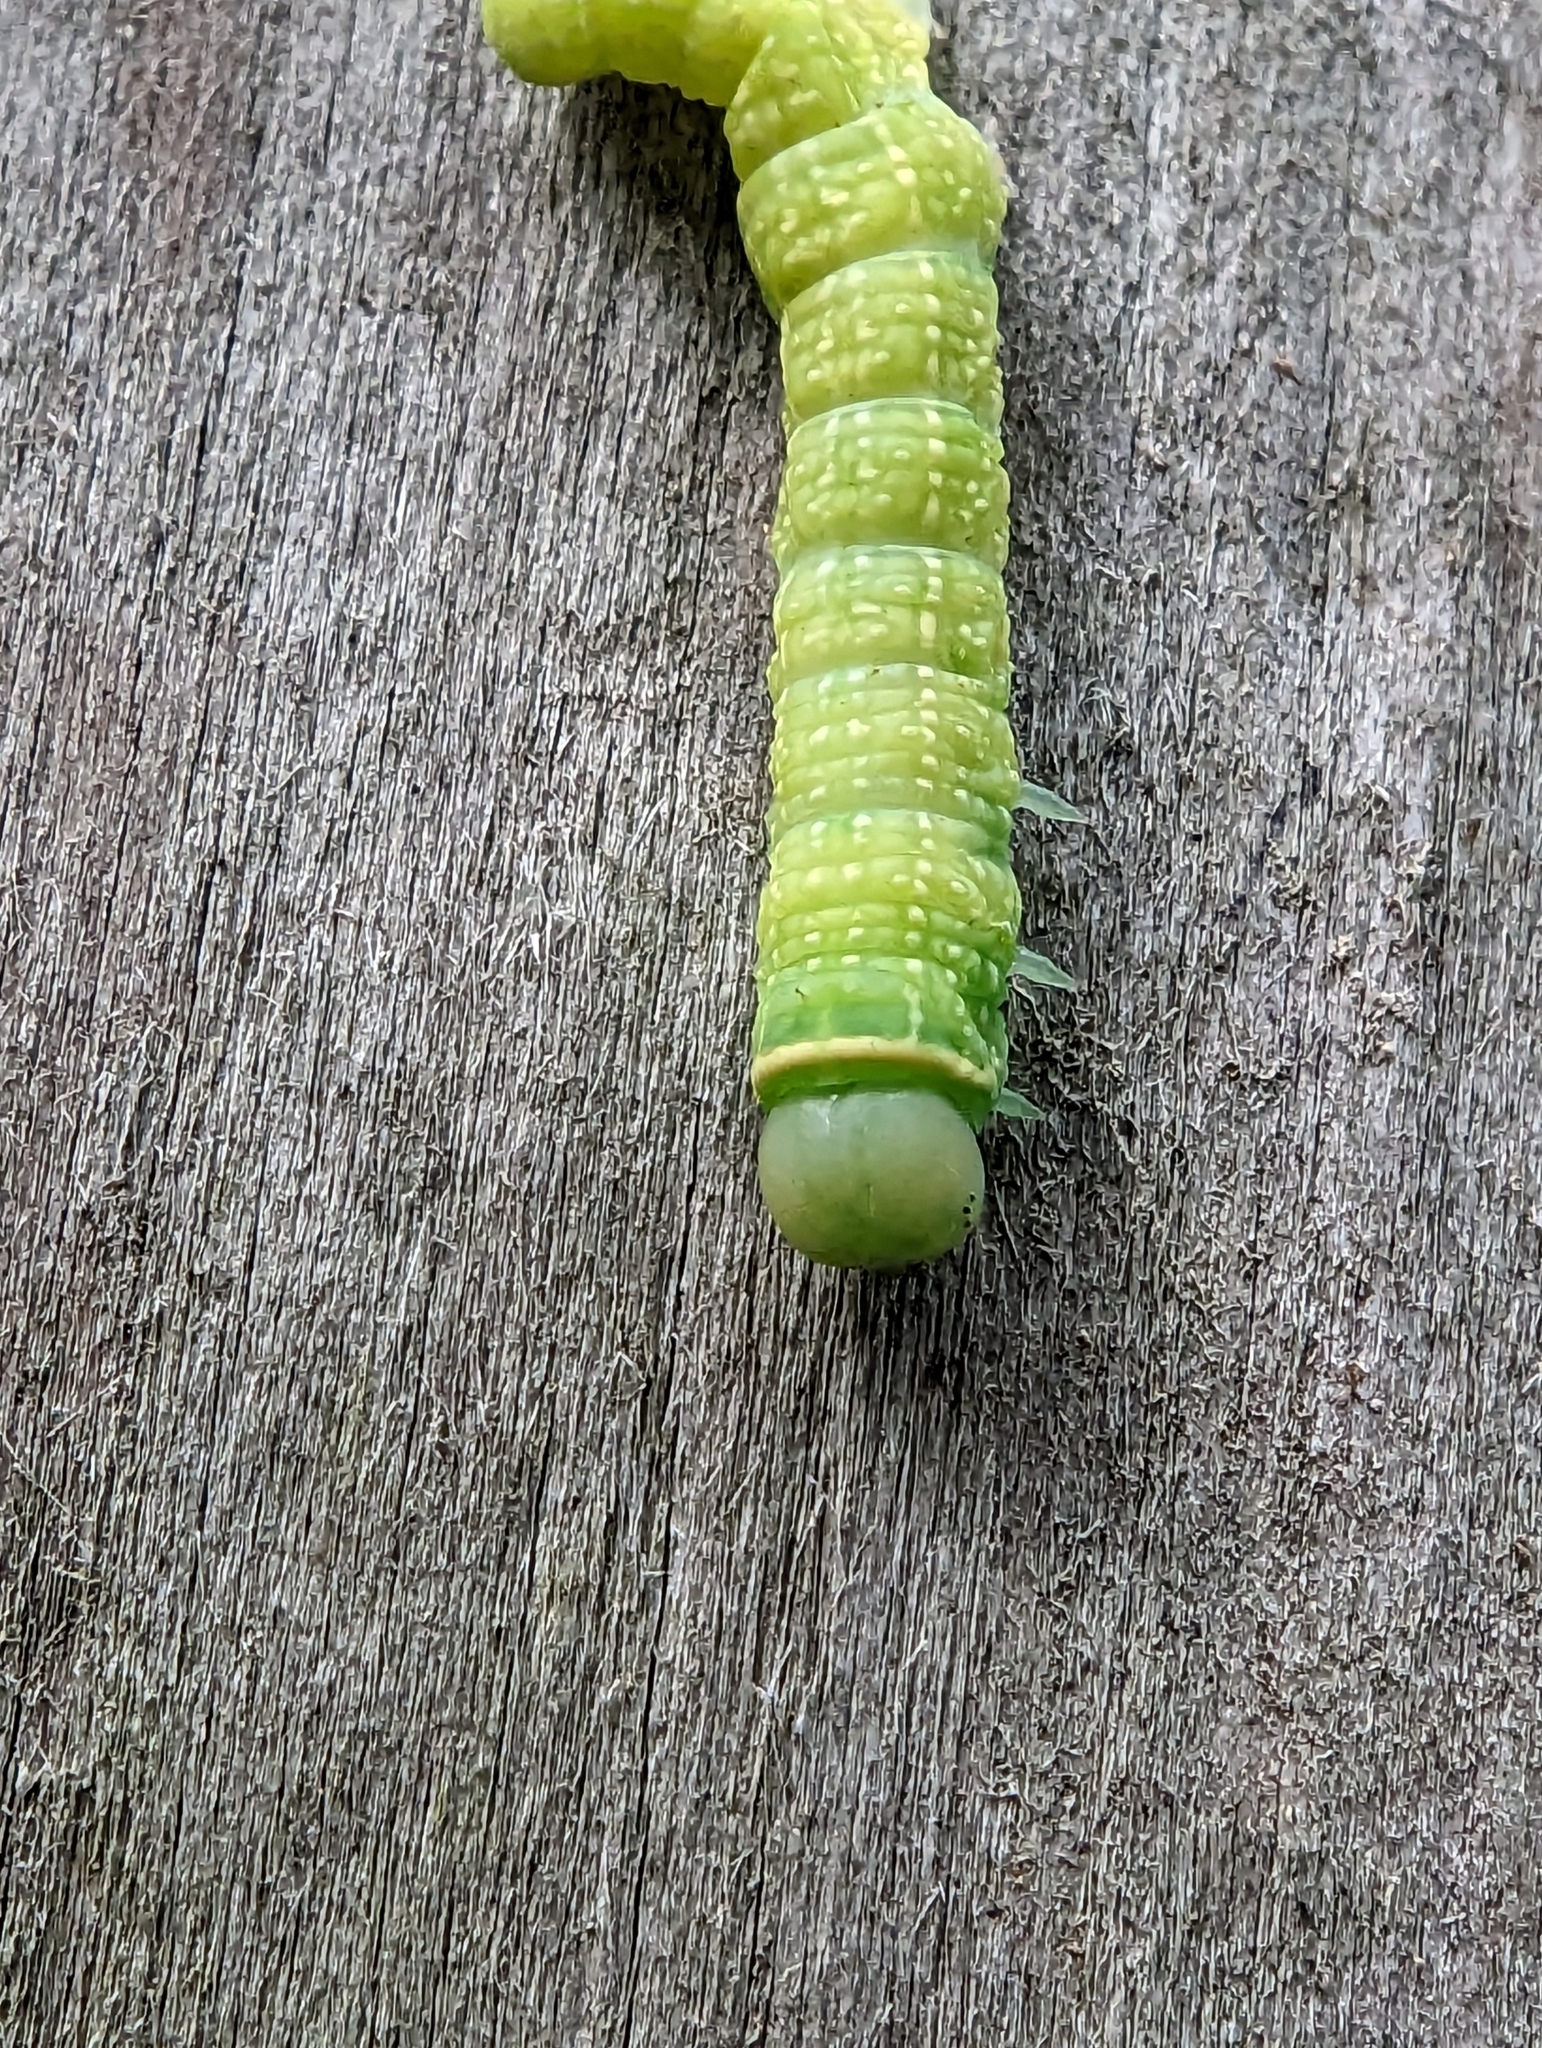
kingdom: Animalia
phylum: Arthropoda
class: Insecta
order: Lepidoptera
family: Nolidae
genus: Pseudoips
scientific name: Pseudoips prasinana
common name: Green silver-lines
